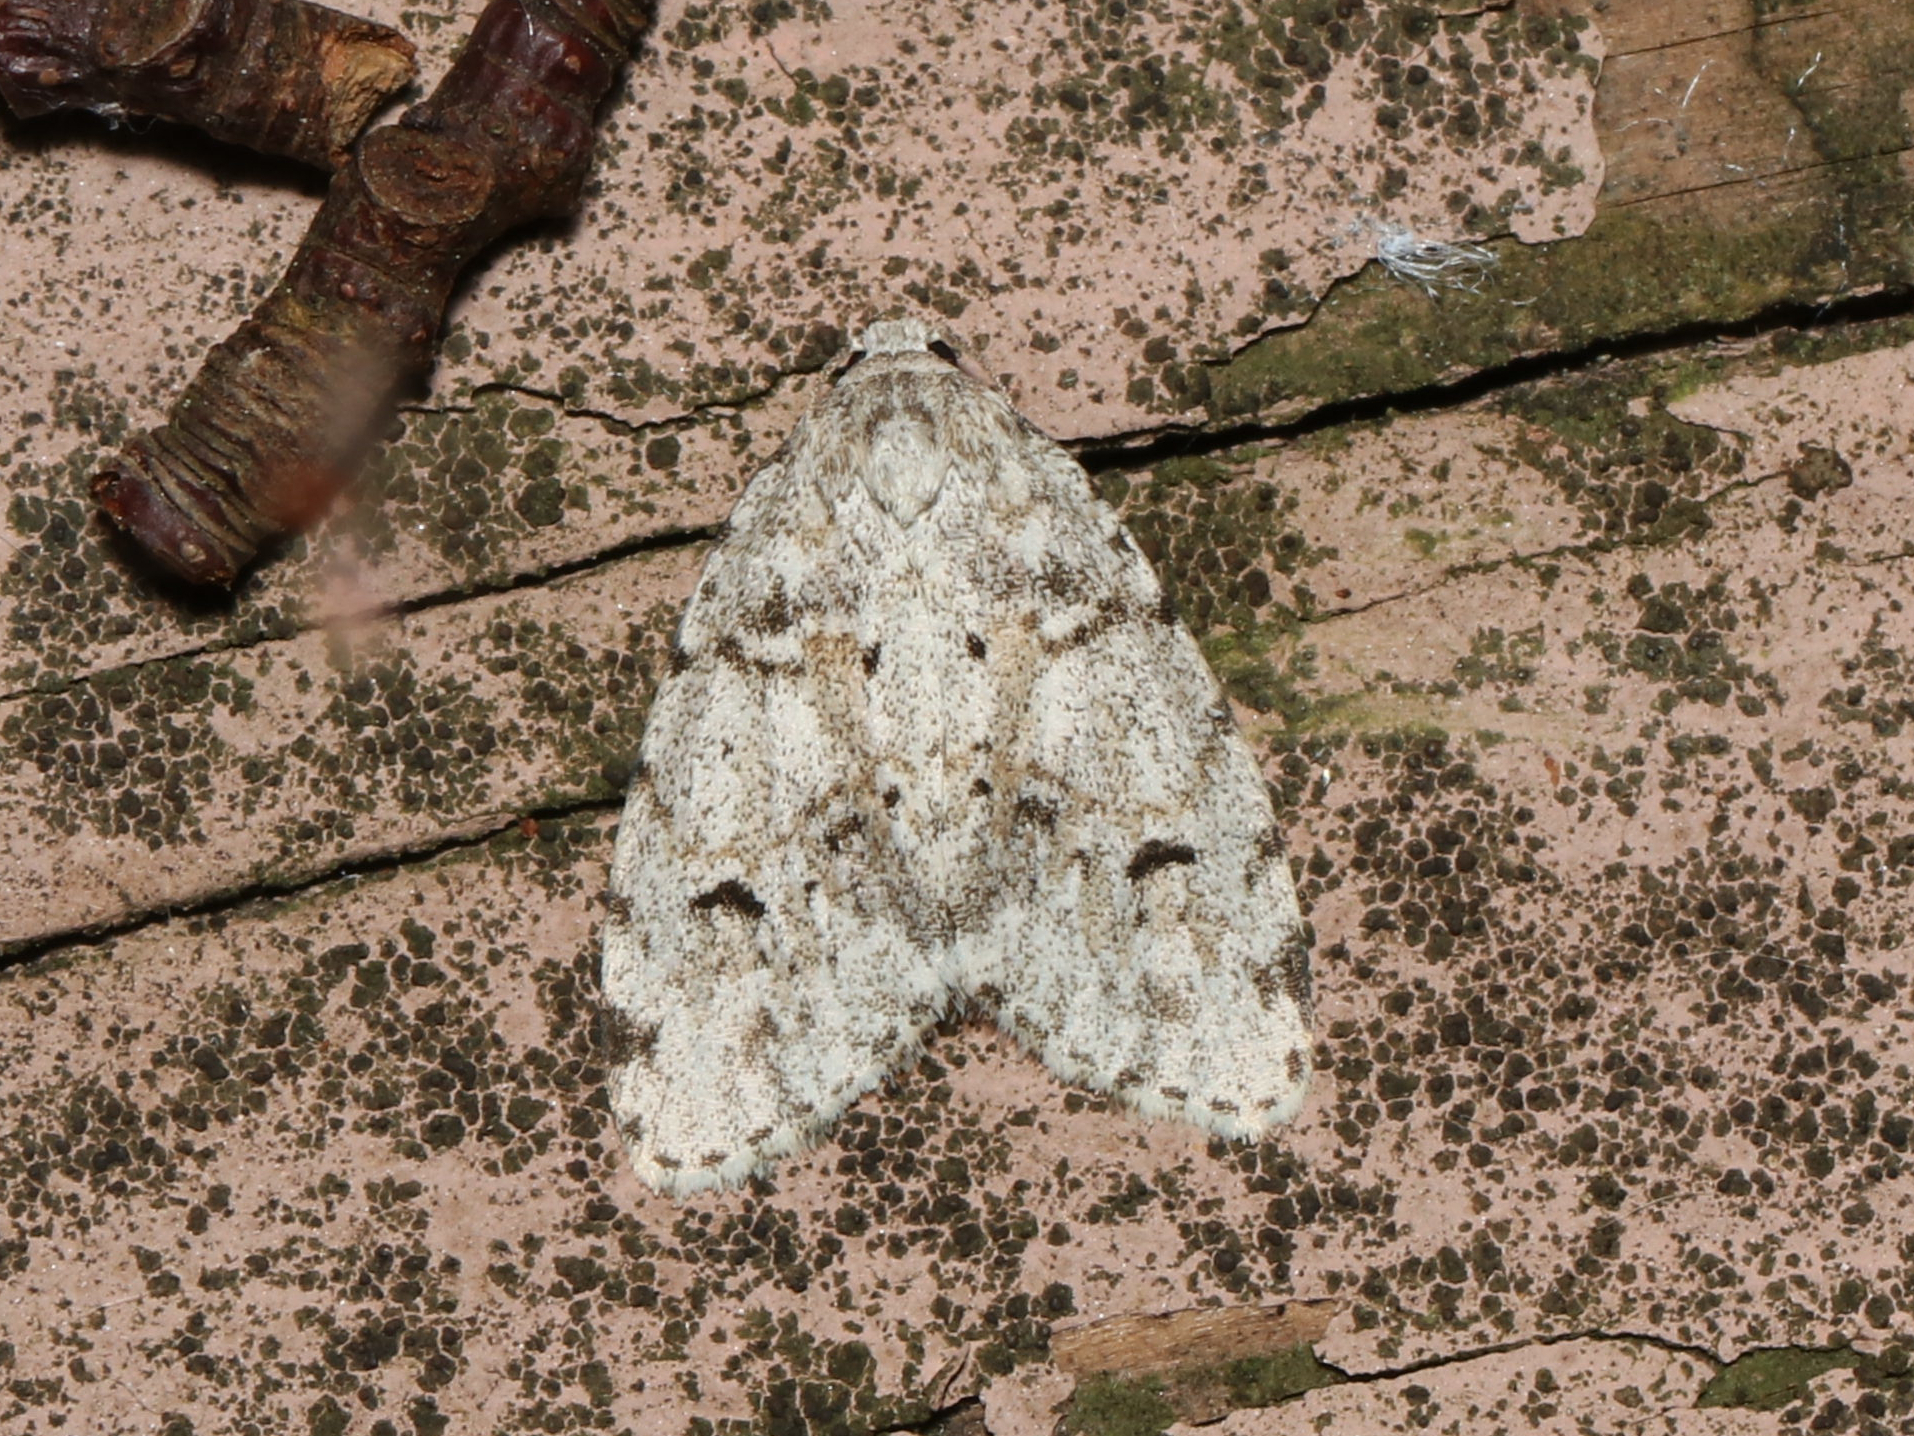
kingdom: Animalia
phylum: Arthropoda
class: Insecta
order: Lepidoptera
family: Erebidae
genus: Clemensia
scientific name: Clemensia albata
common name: Little white lichen moth
